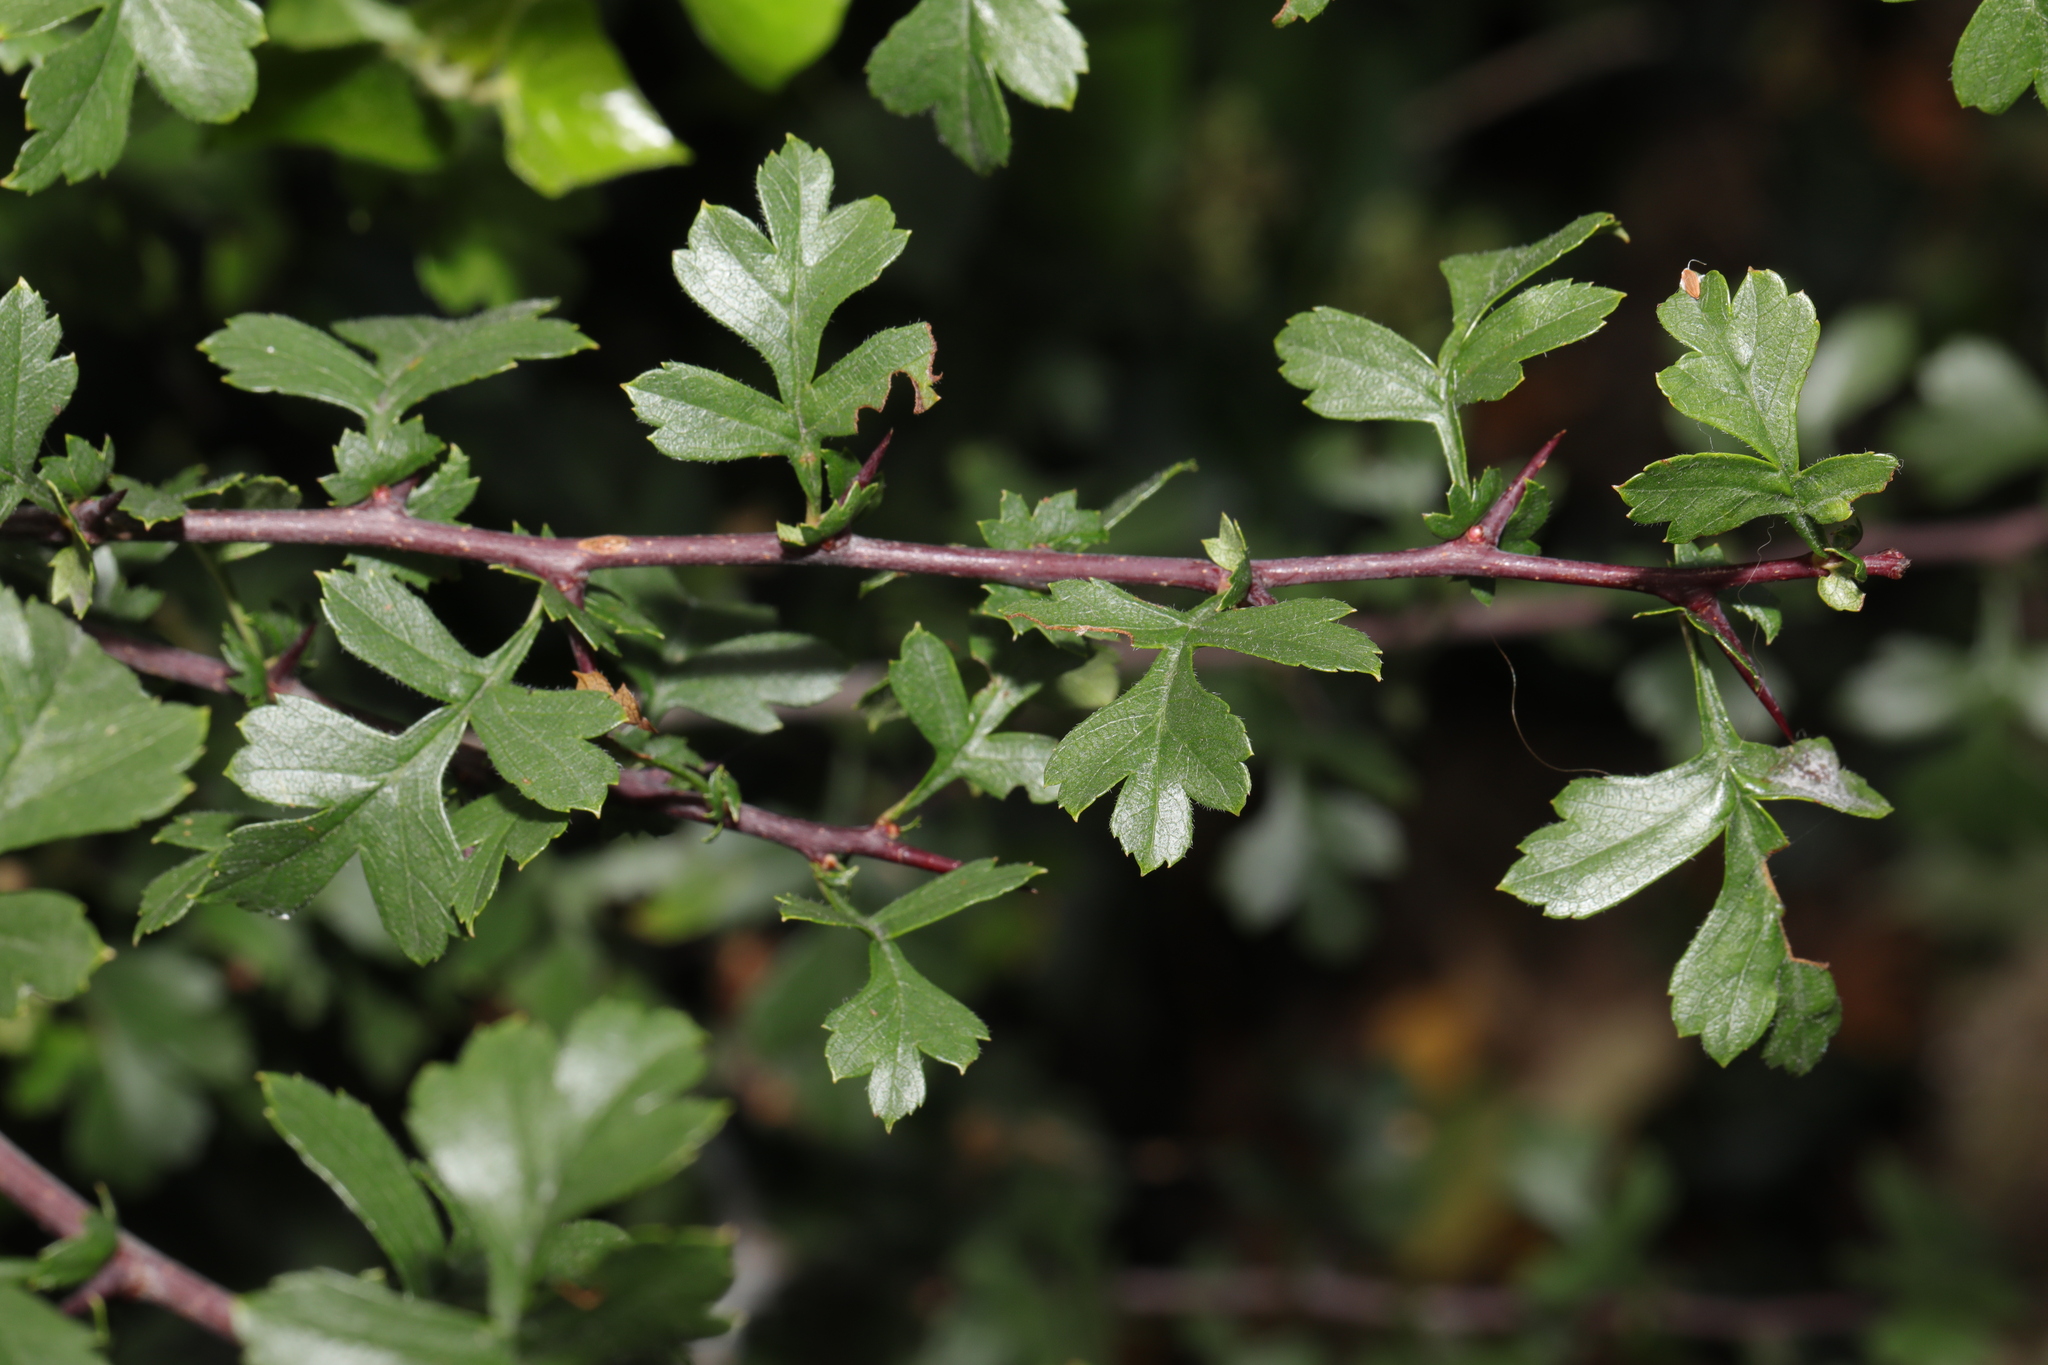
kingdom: Plantae
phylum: Tracheophyta
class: Magnoliopsida
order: Rosales
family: Rosaceae
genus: Crataegus
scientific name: Crataegus monogyna
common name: Hawthorn
